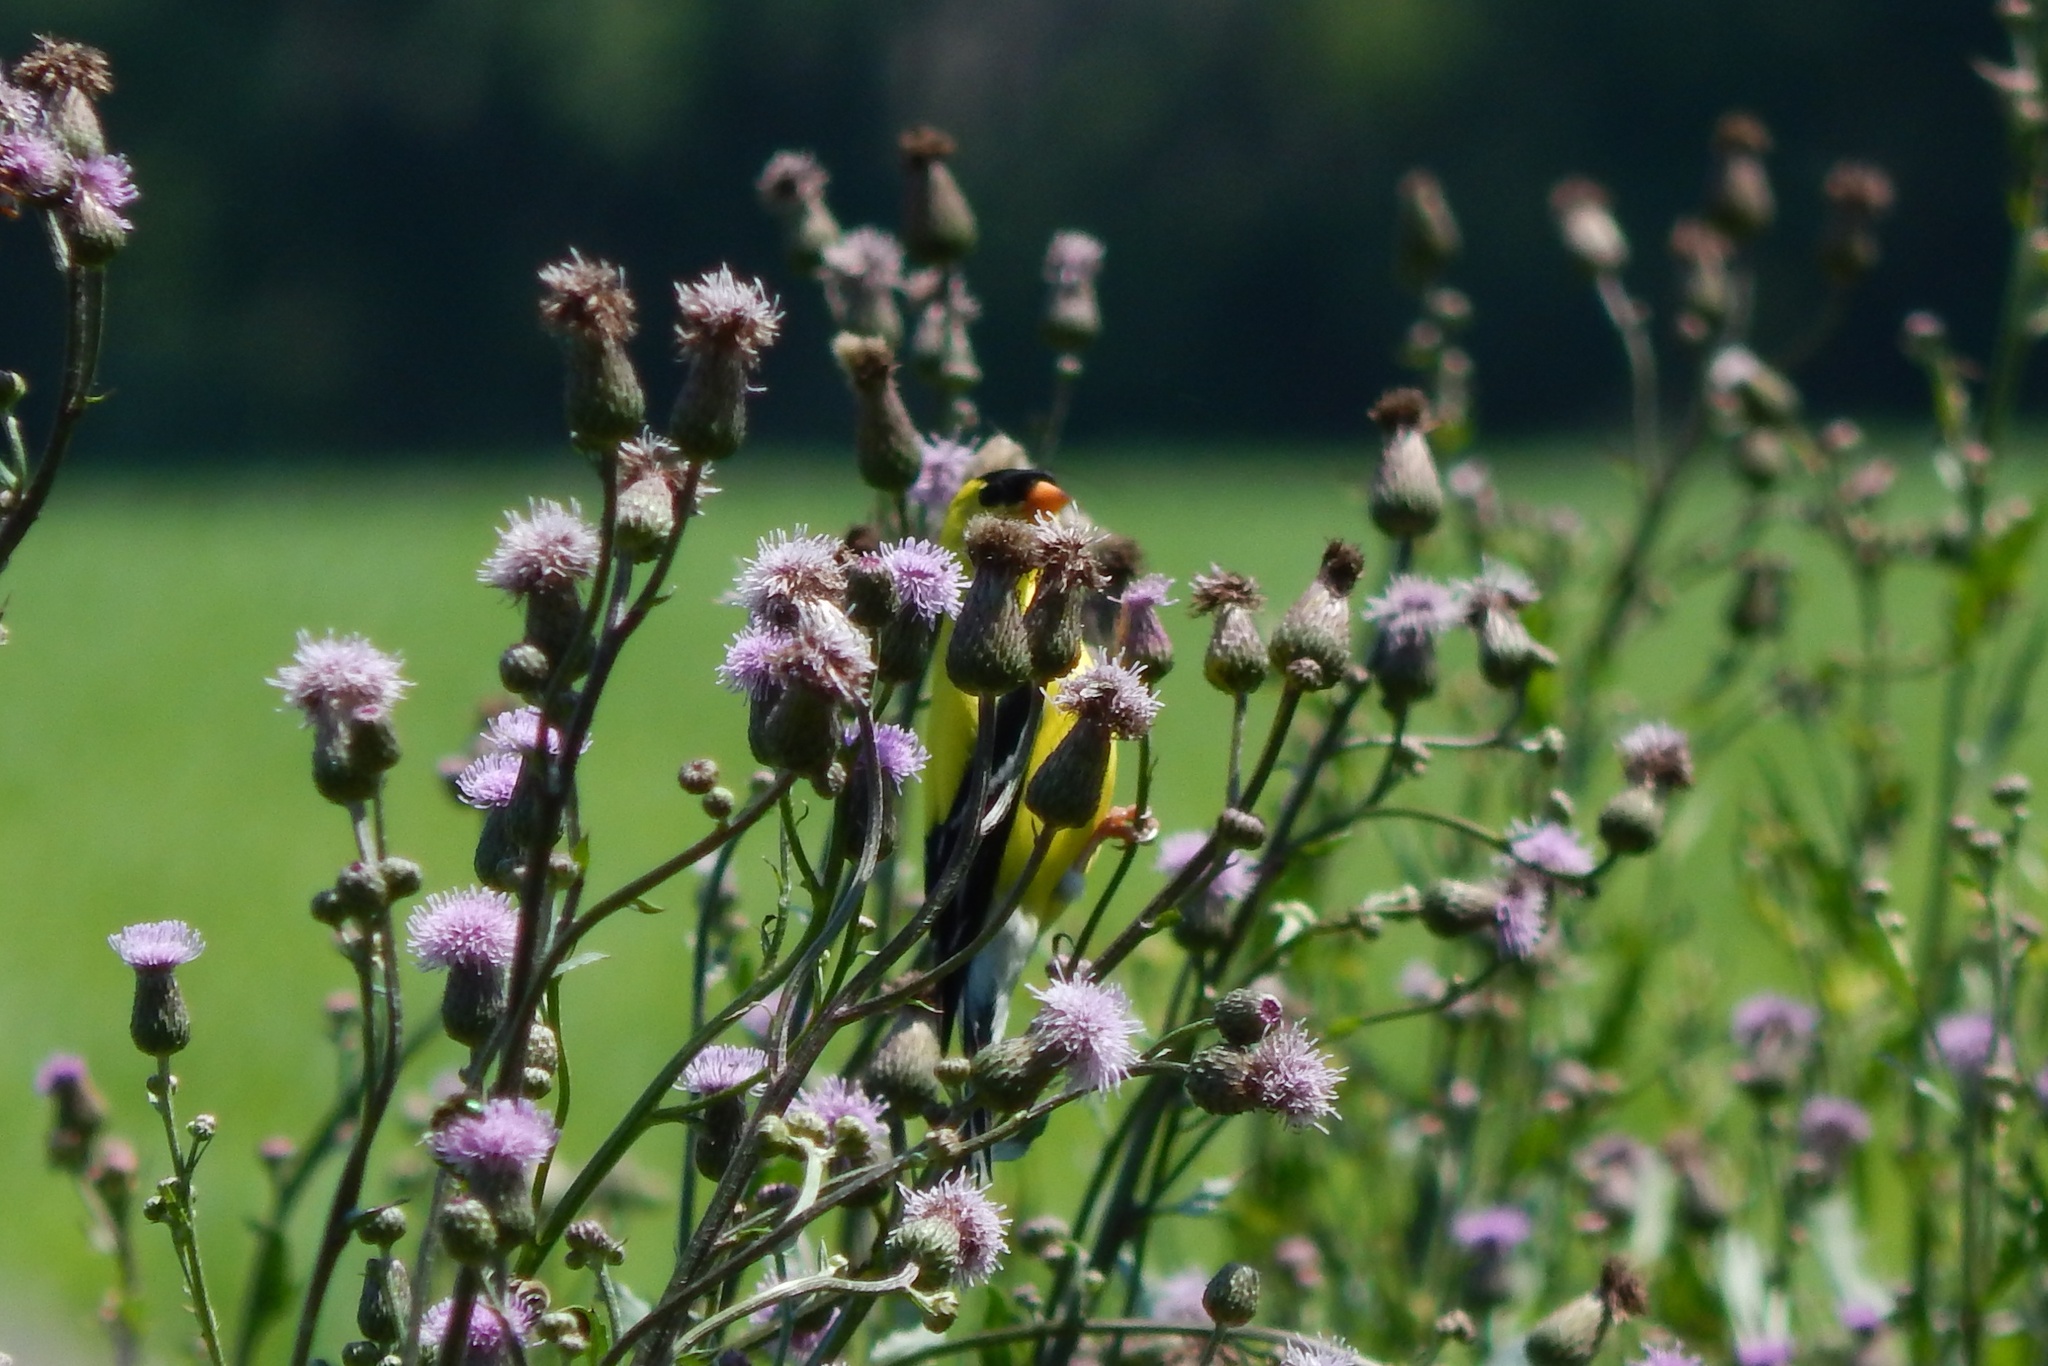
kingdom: Animalia
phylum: Chordata
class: Aves
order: Passeriformes
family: Fringillidae
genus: Spinus
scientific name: Spinus tristis
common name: American goldfinch
